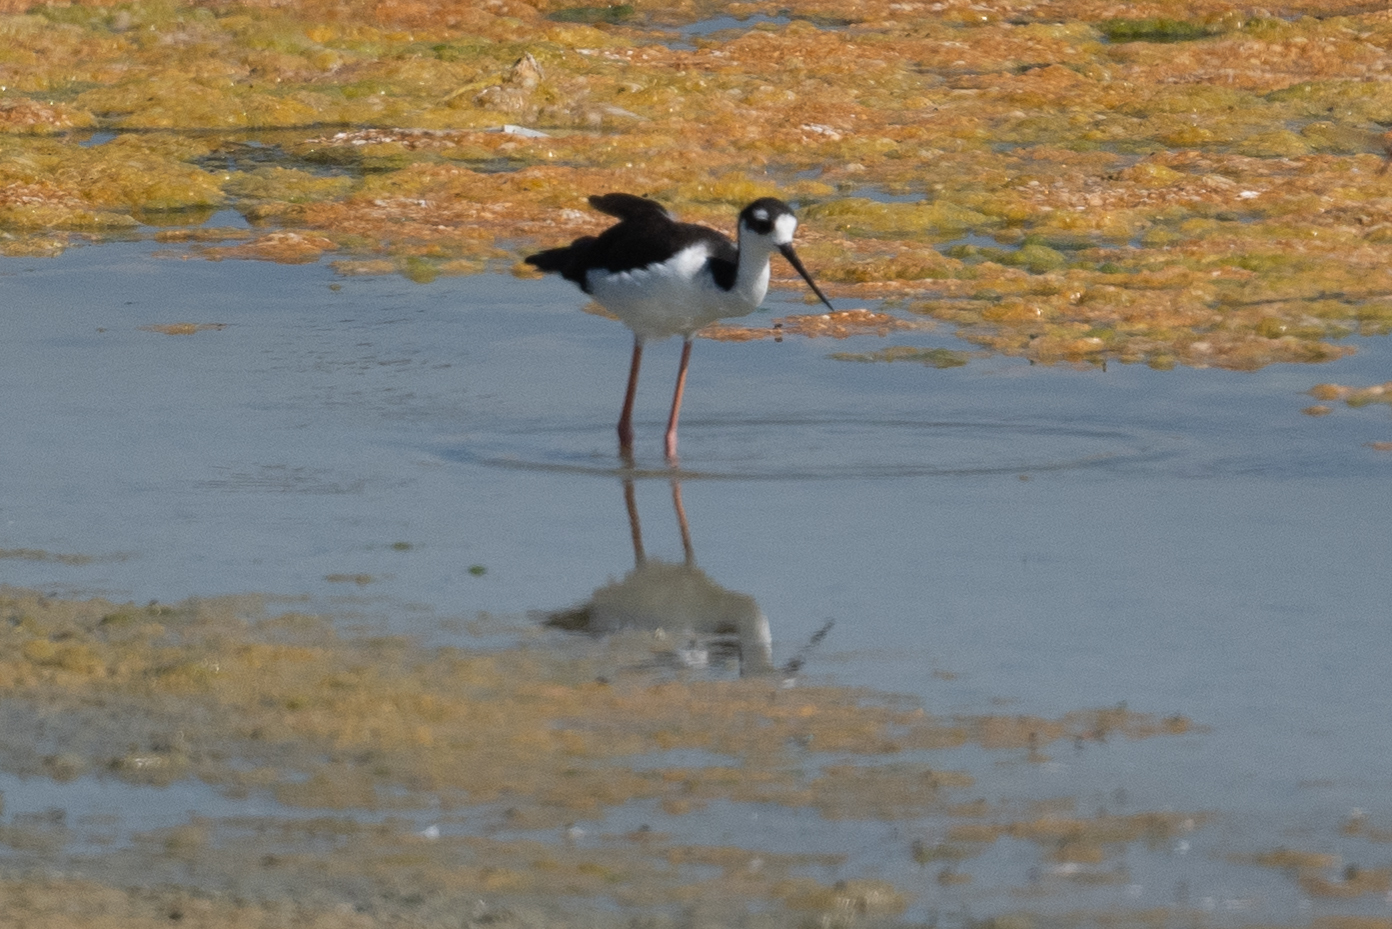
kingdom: Animalia
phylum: Chordata
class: Aves
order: Charadriiformes
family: Recurvirostridae
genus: Himantopus
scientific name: Himantopus mexicanus
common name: Black-necked stilt
